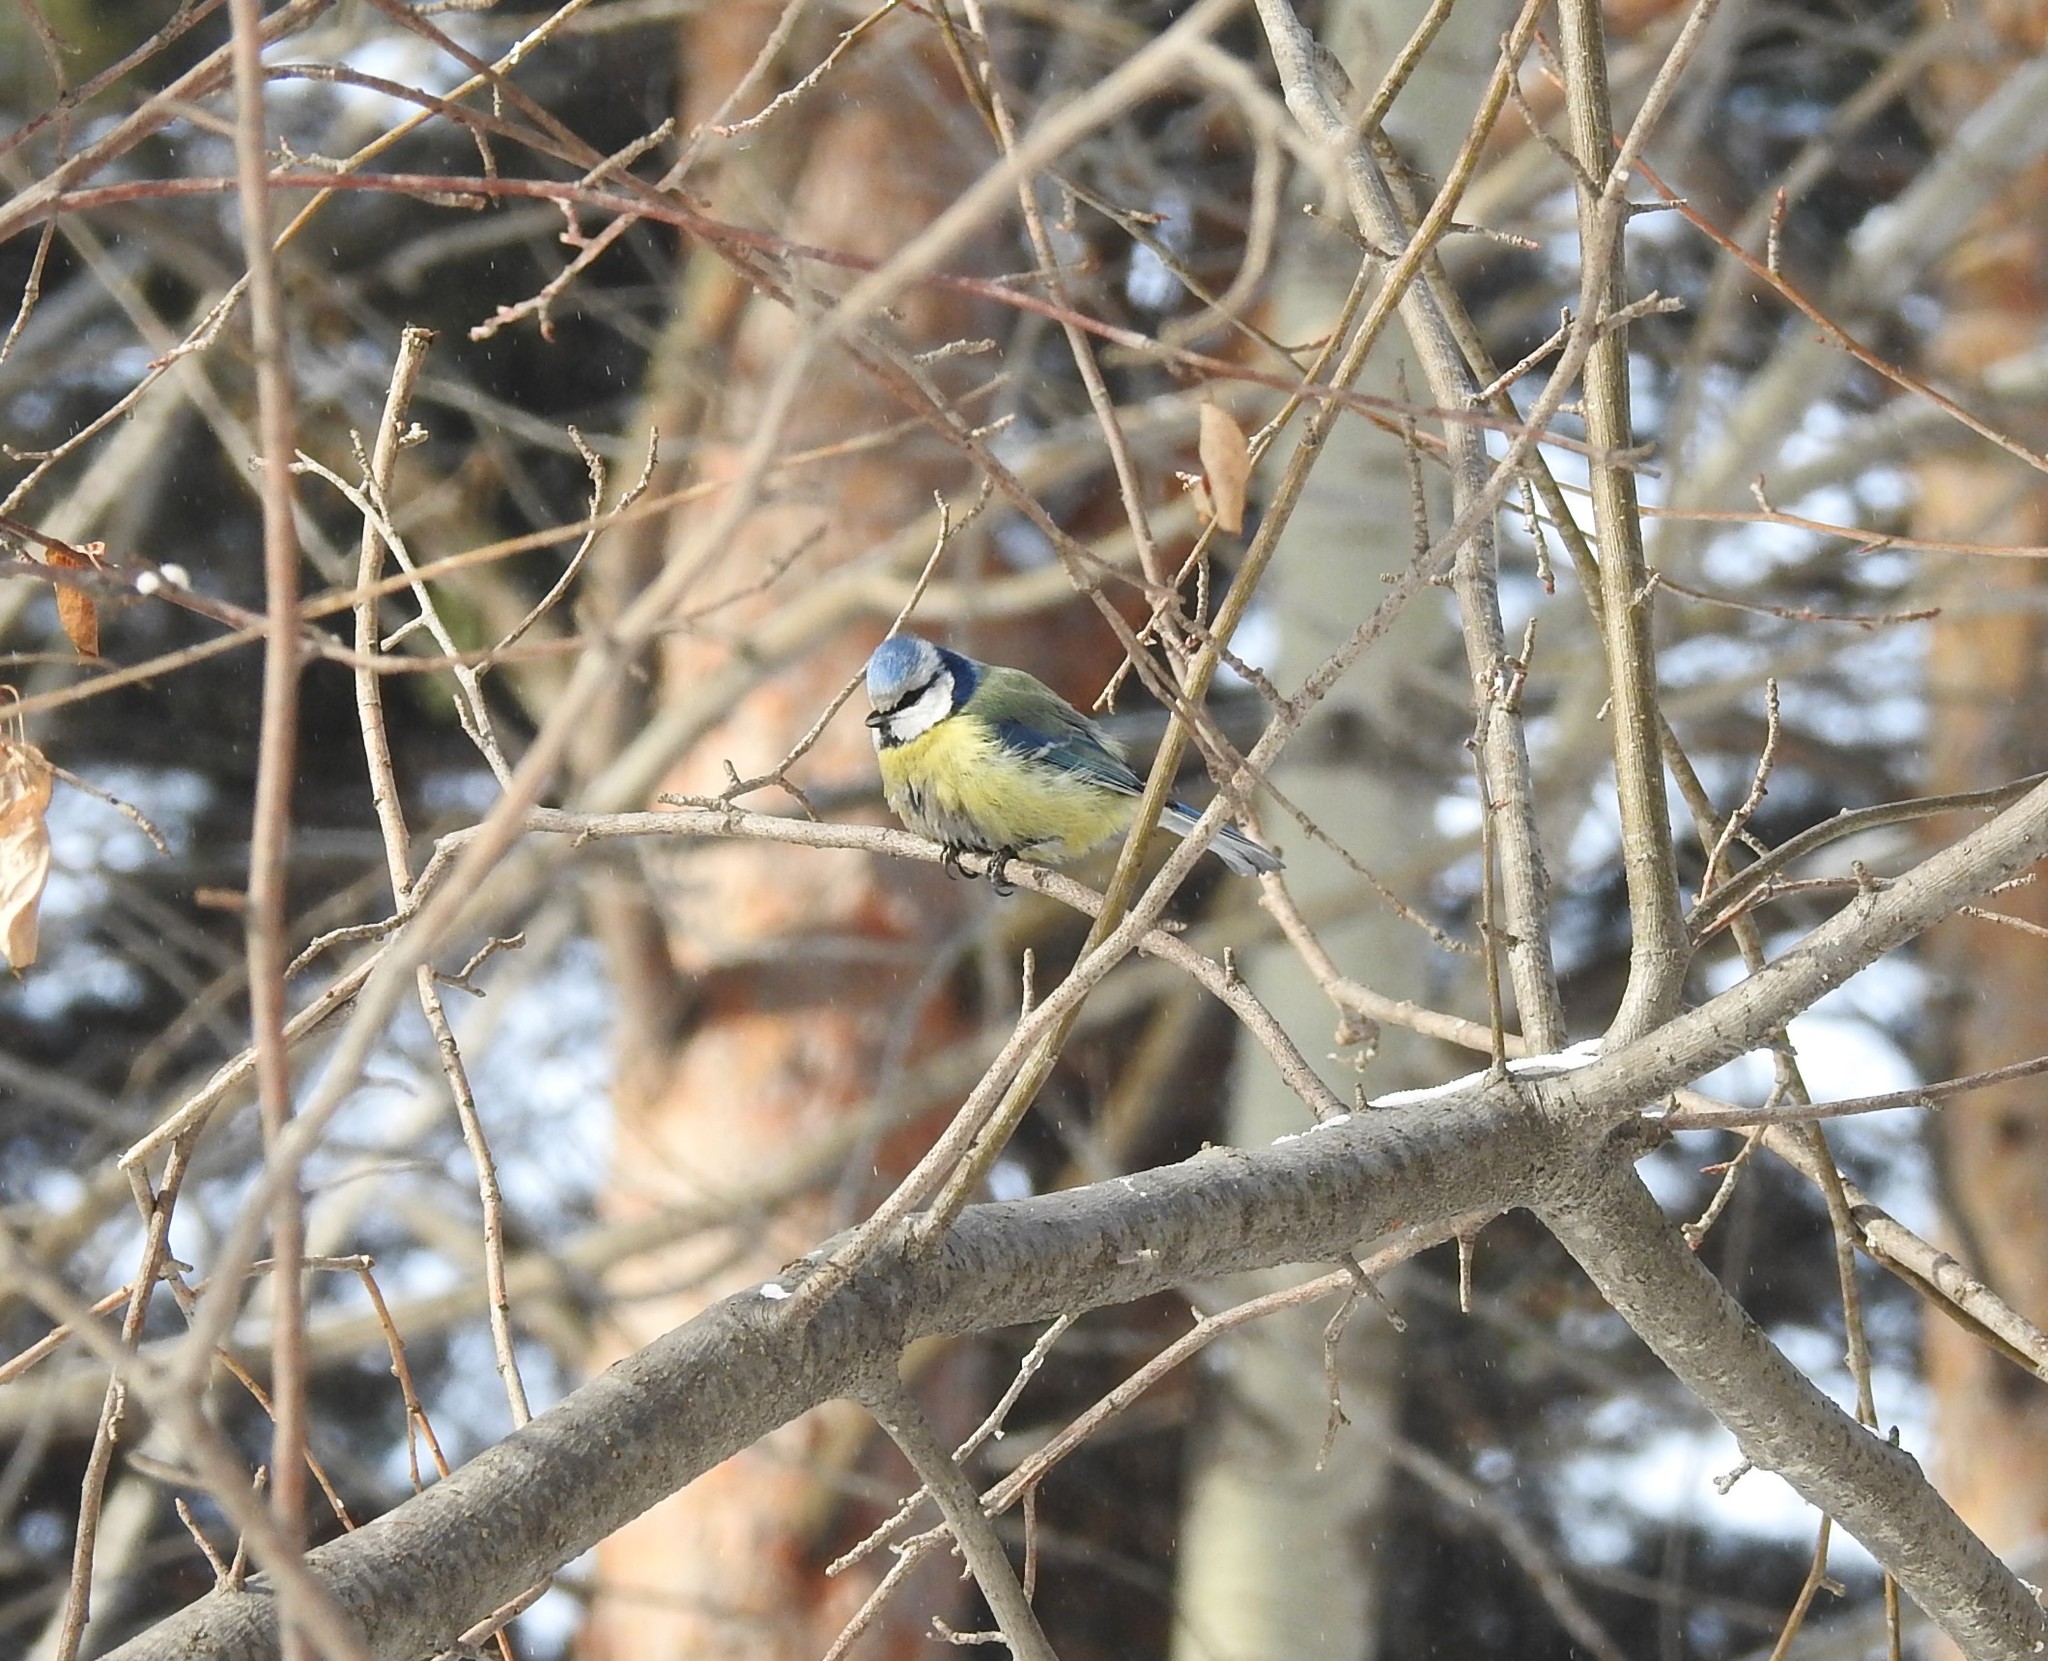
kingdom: Animalia
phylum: Chordata
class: Aves
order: Passeriformes
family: Paridae
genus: Cyanistes
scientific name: Cyanistes caeruleus
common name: Eurasian blue tit
